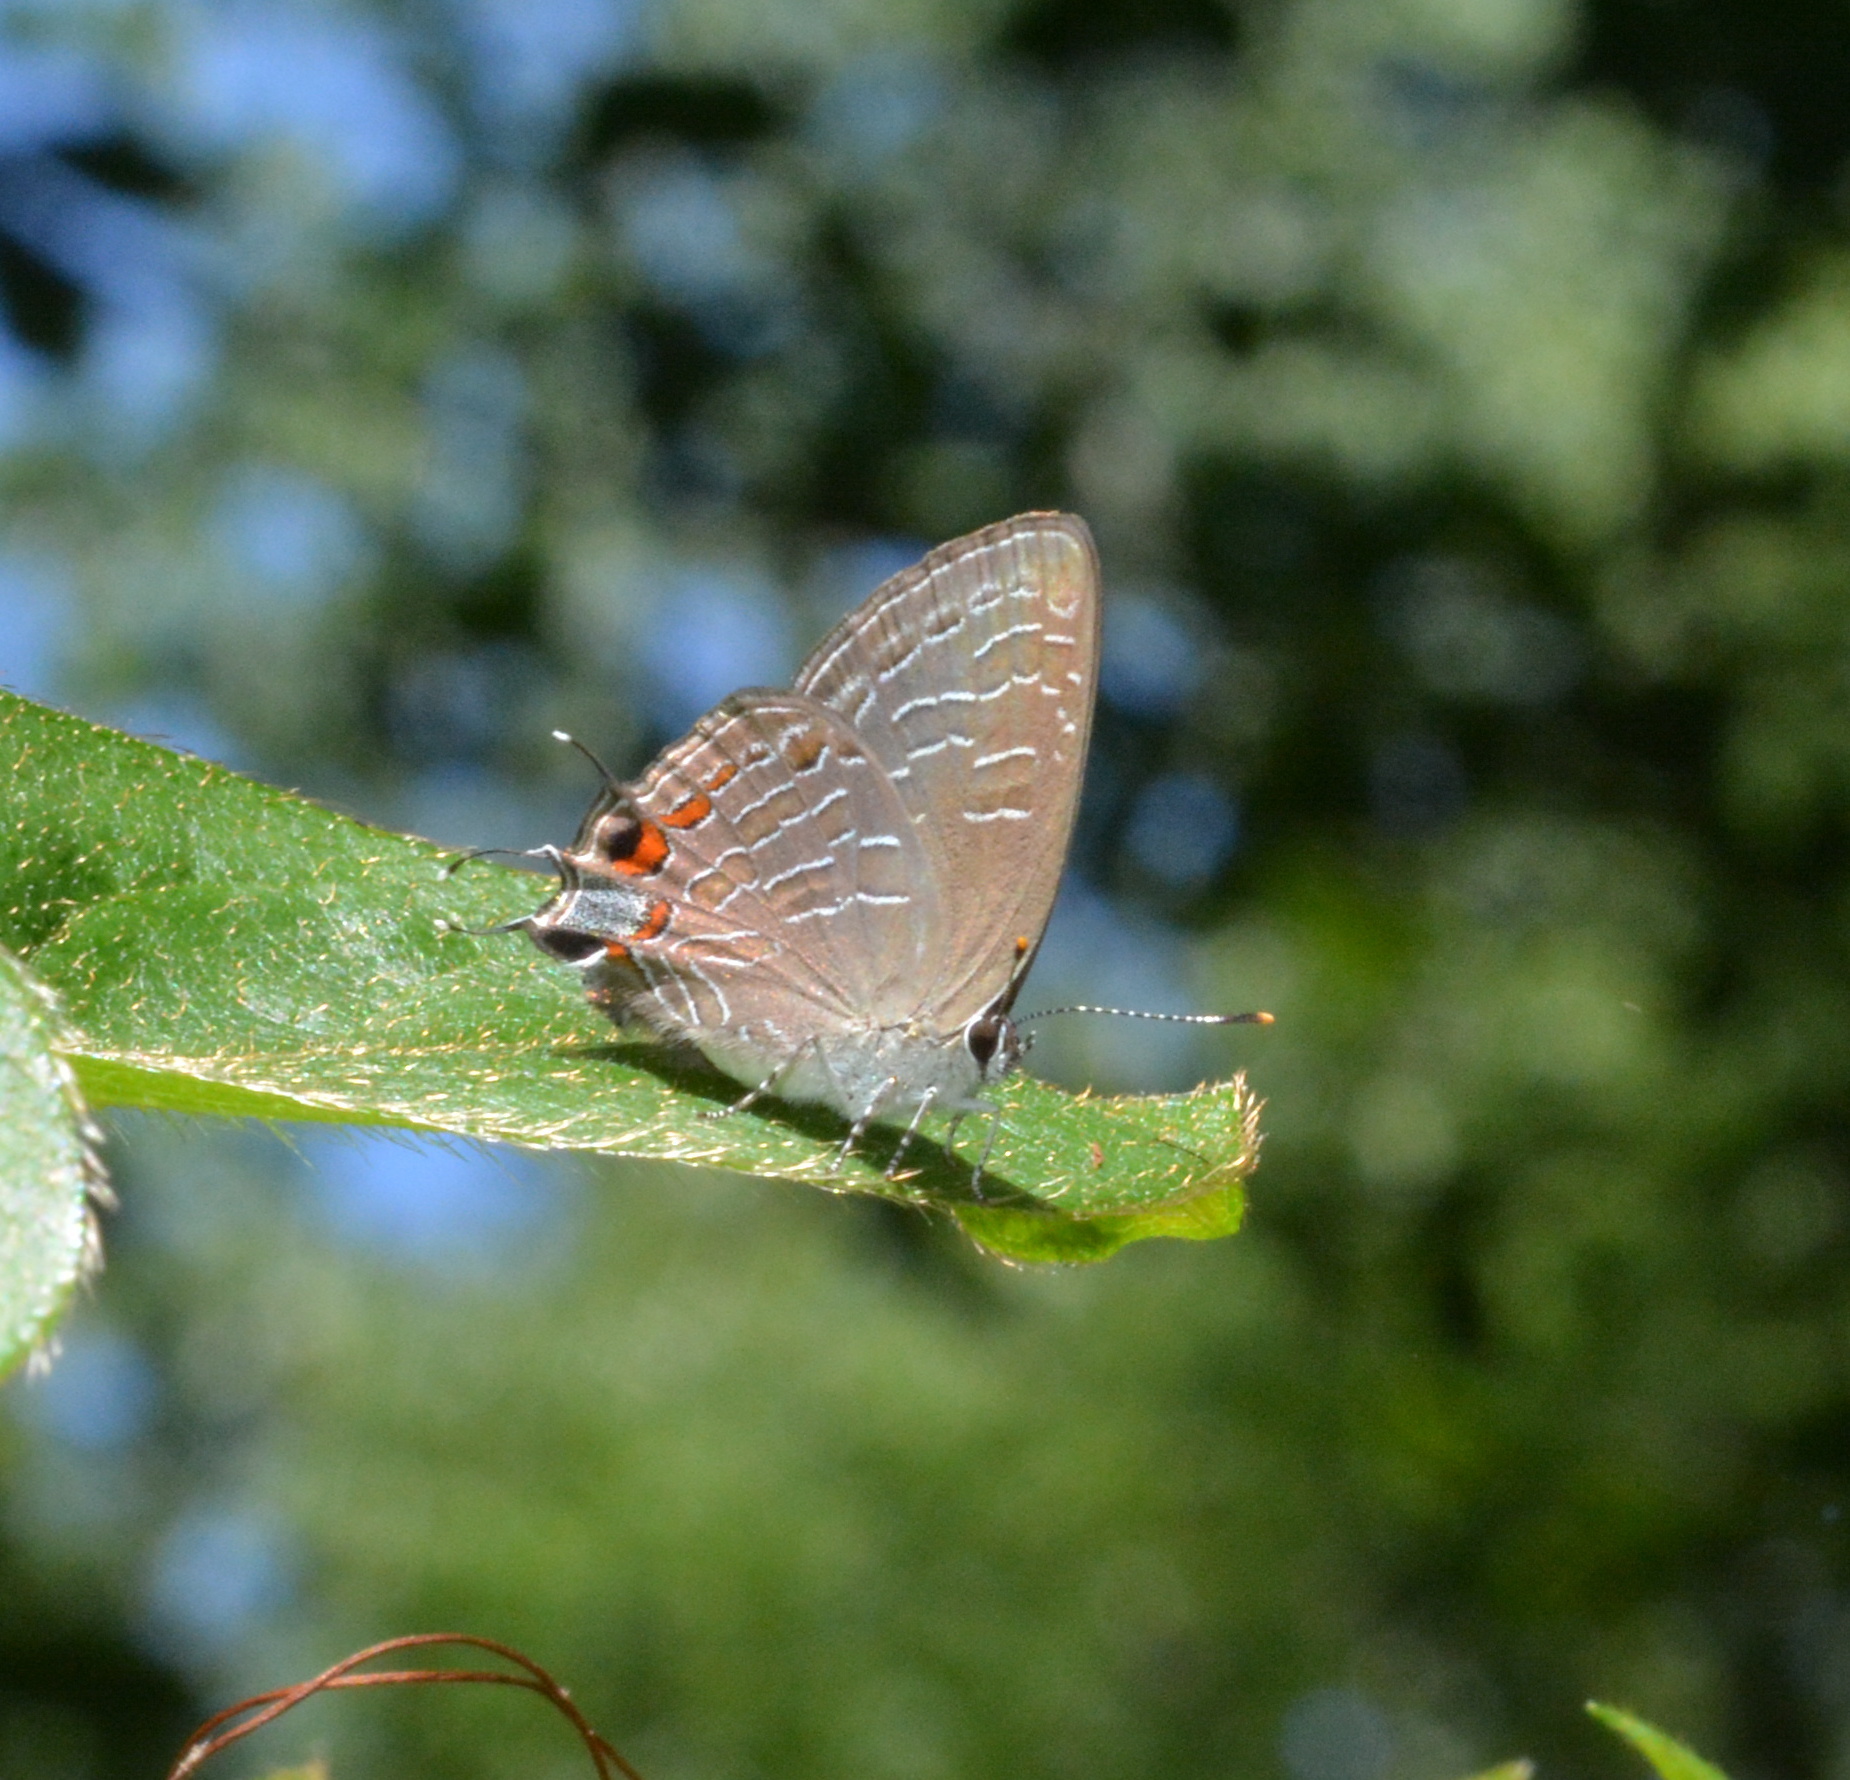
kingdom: Animalia
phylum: Arthropoda
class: Insecta
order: Lepidoptera
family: Lycaenidae
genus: Satyrium
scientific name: Satyrium liparops
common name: Striped hairstreak
